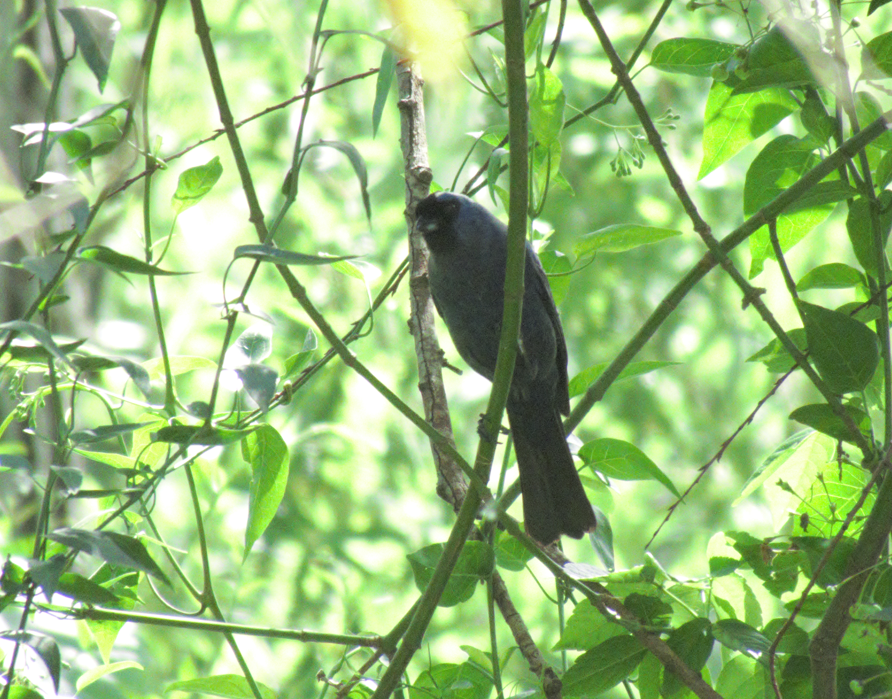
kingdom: Animalia
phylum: Chordata
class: Aves
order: Passeriformes
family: Thraupidae
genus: Stephanophorus
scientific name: Stephanophorus diadematus
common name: Diademed tanager
